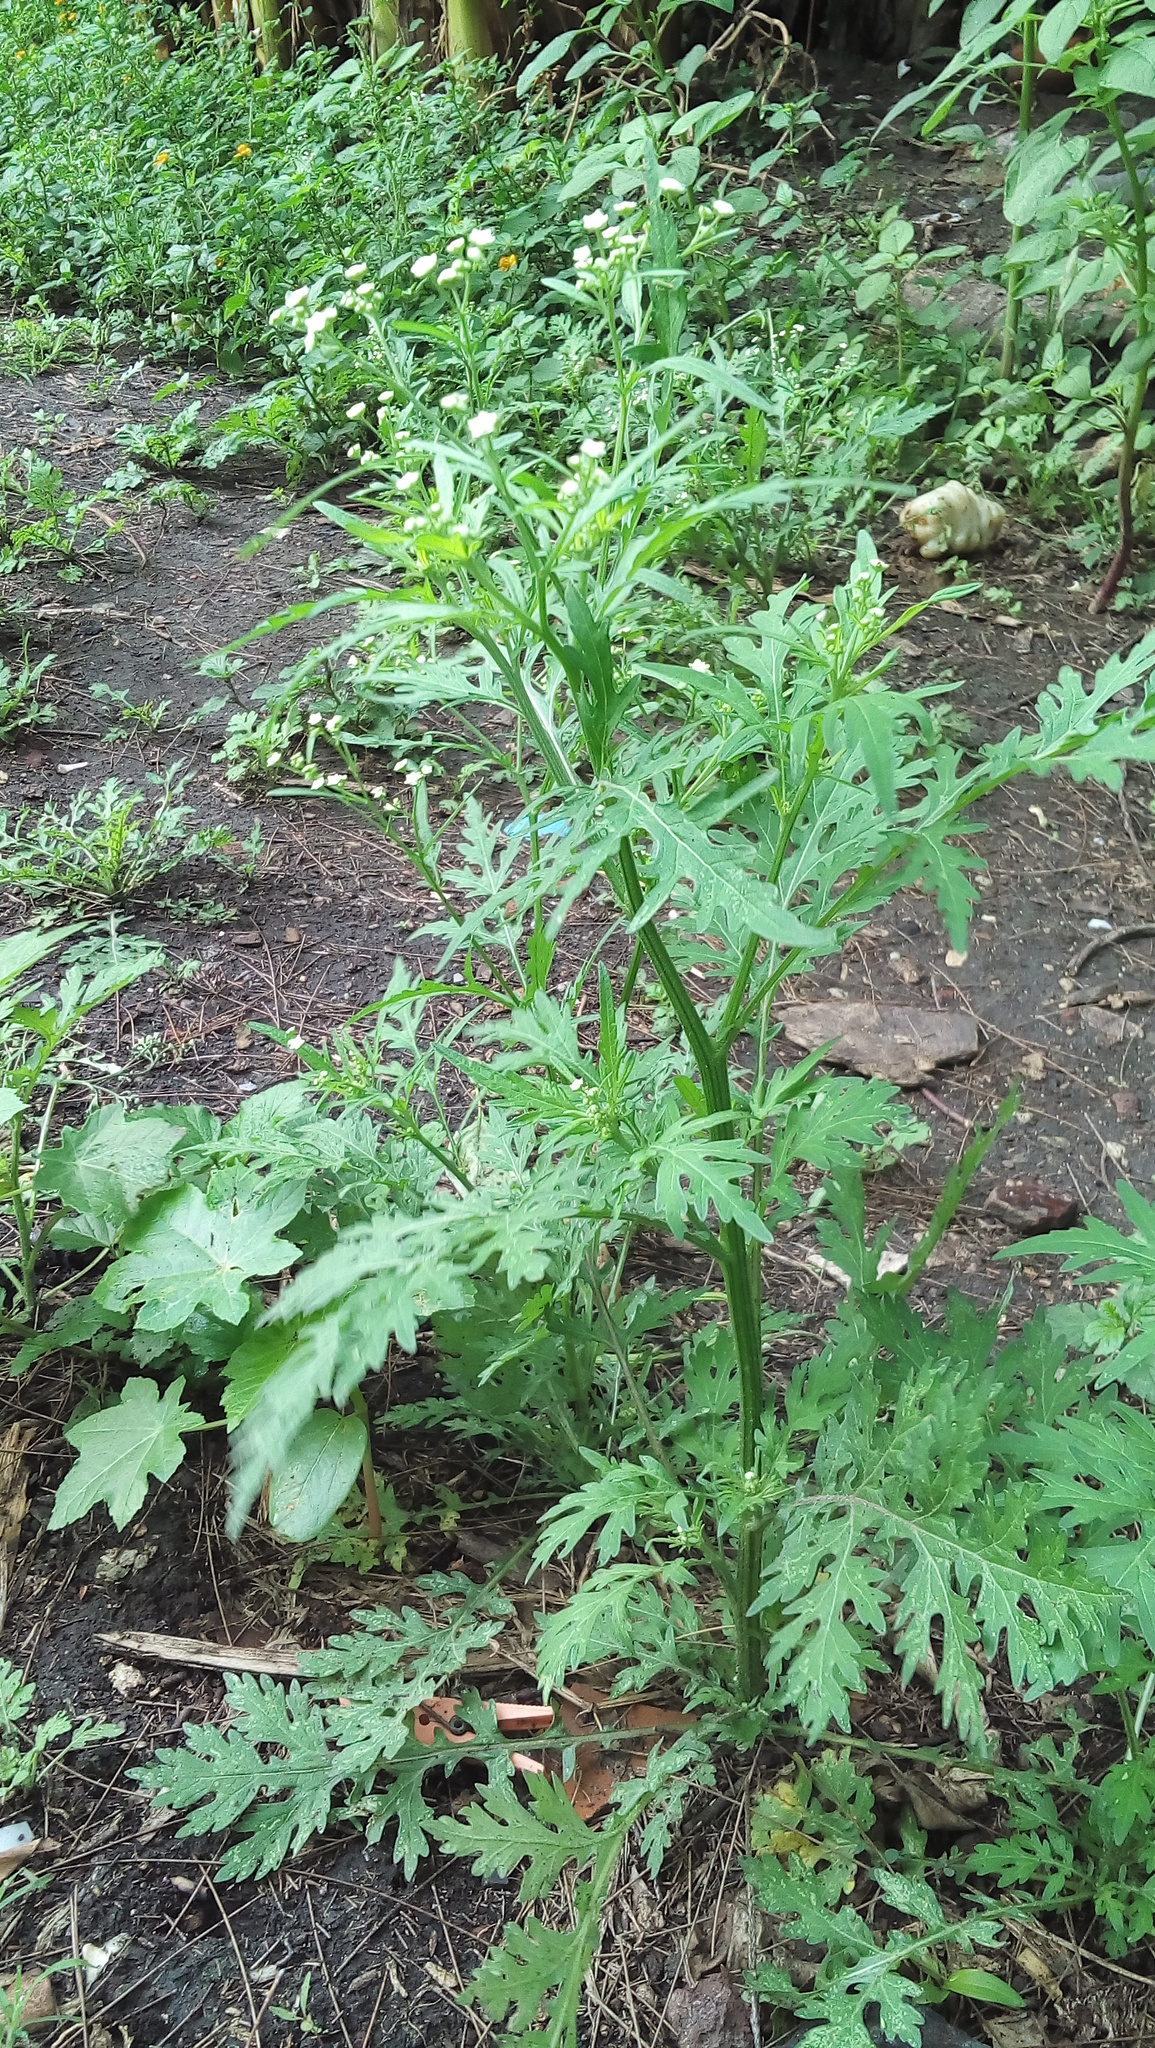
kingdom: Plantae
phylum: Tracheophyta
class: Magnoliopsida
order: Asterales
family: Asteraceae
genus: Parthenium
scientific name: Parthenium hysterophorus
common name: Santa maria feverfew
